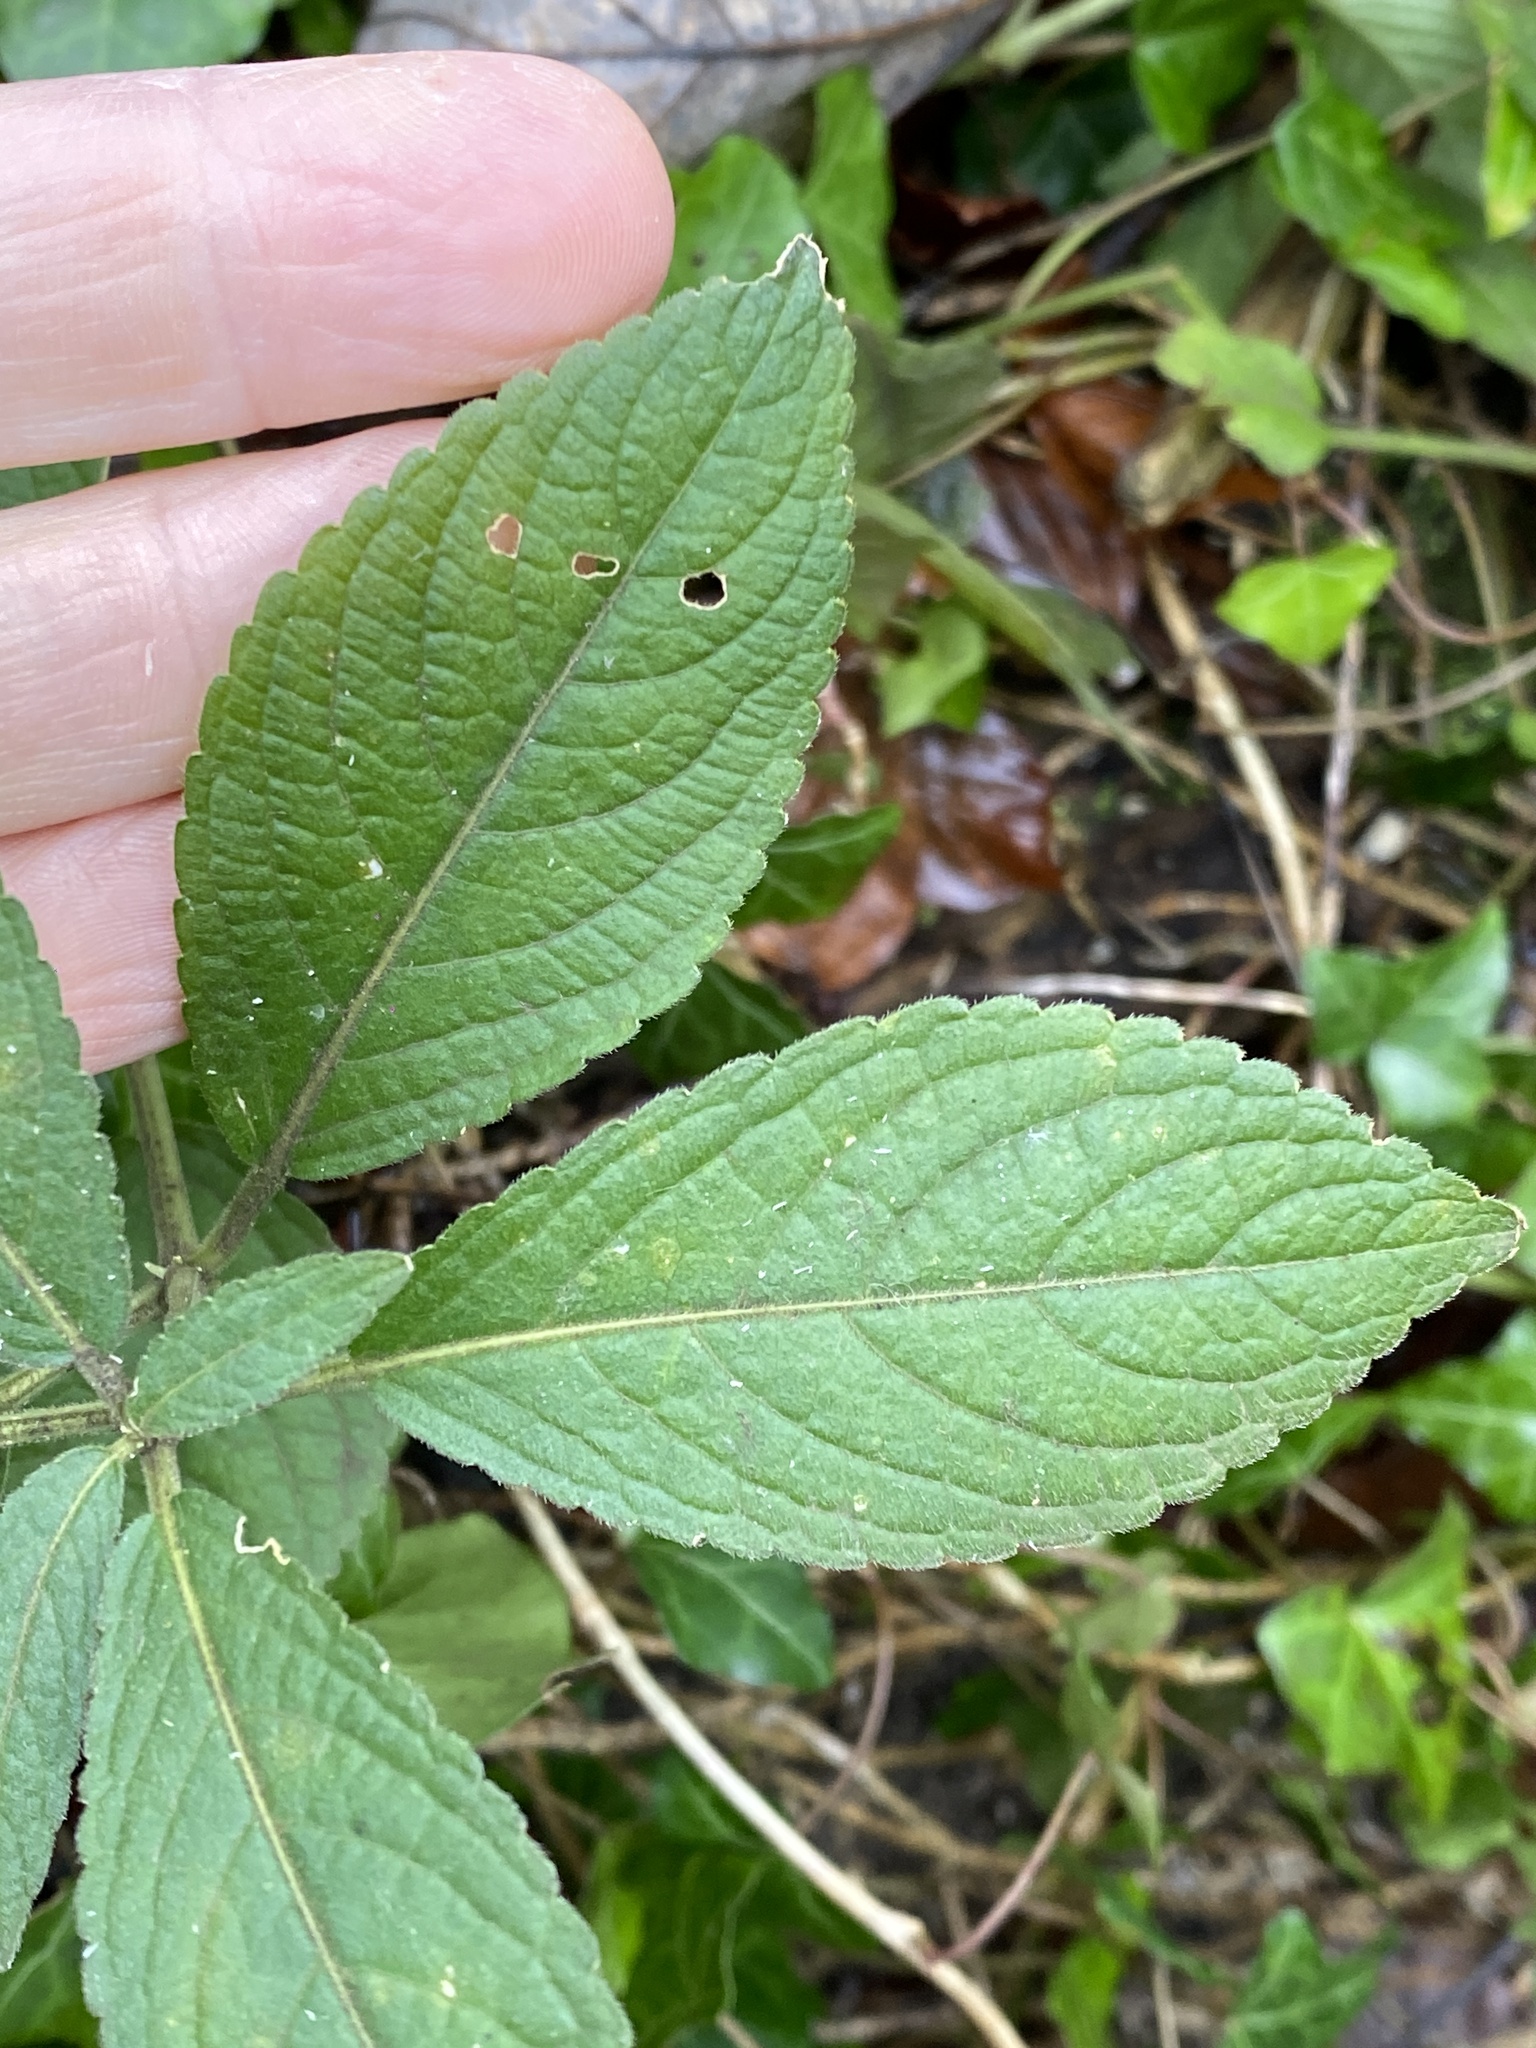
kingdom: Plantae
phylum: Tracheophyta
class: Magnoliopsida
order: Malpighiales
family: Euphorbiaceae
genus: Mercurialis
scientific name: Mercurialis perennis
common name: Dog mercury
